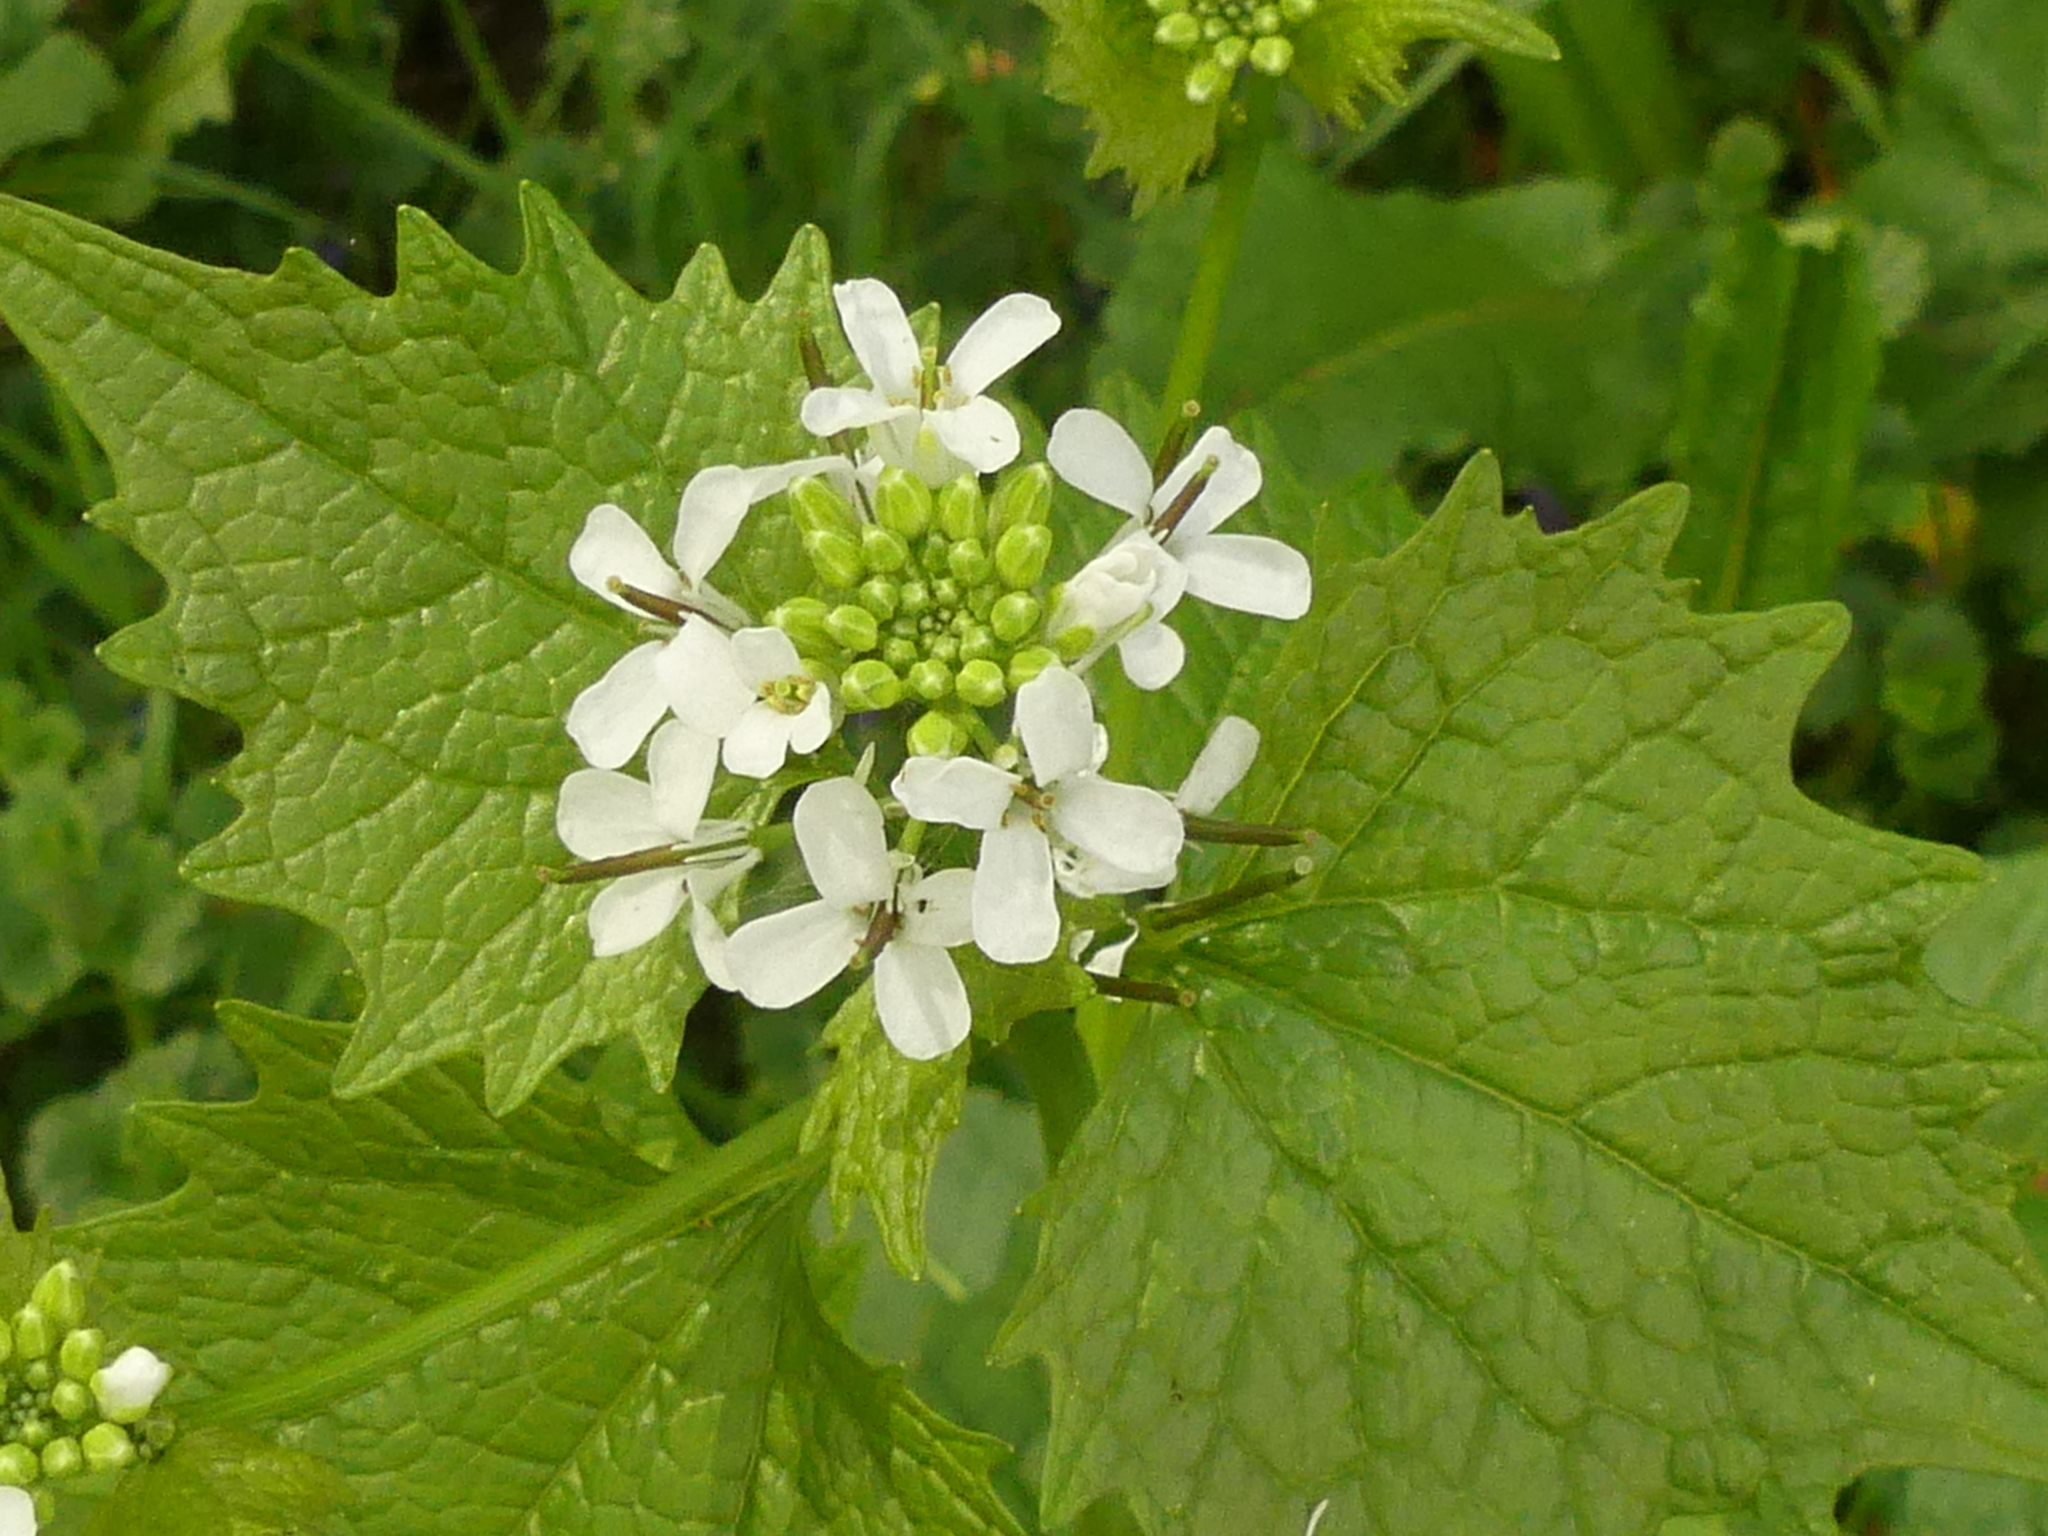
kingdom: Plantae
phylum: Tracheophyta
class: Magnoliopsida
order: Brassicales
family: Brassicaceae
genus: Alliaria
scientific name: Alliaria petiolata
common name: Garlic mustard
